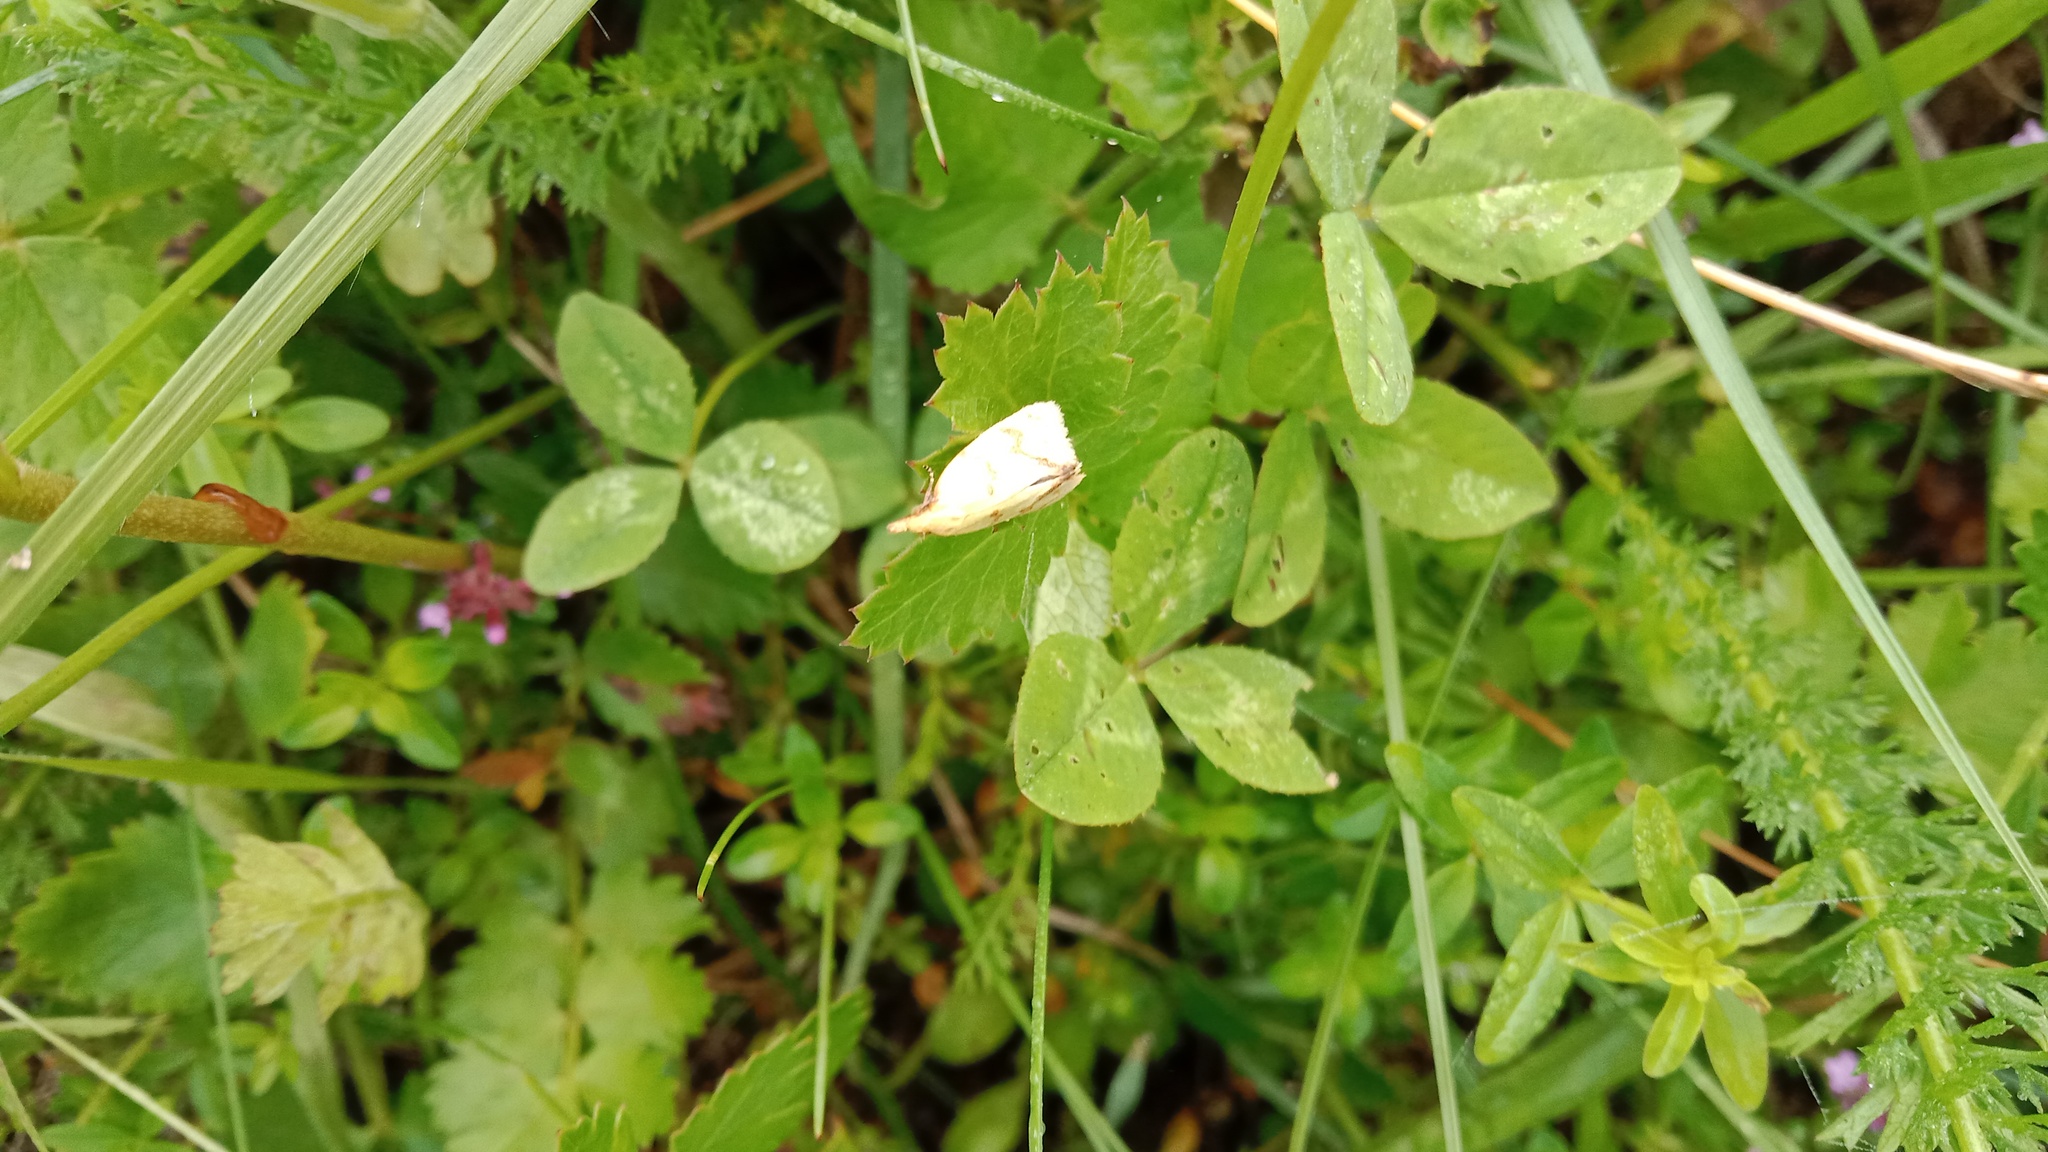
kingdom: Animalia
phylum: Arthropoda
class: Insecta
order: Lepidoptera
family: Tortricidae
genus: Agapeta
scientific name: Agapeta hamana
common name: Common yellow conch
